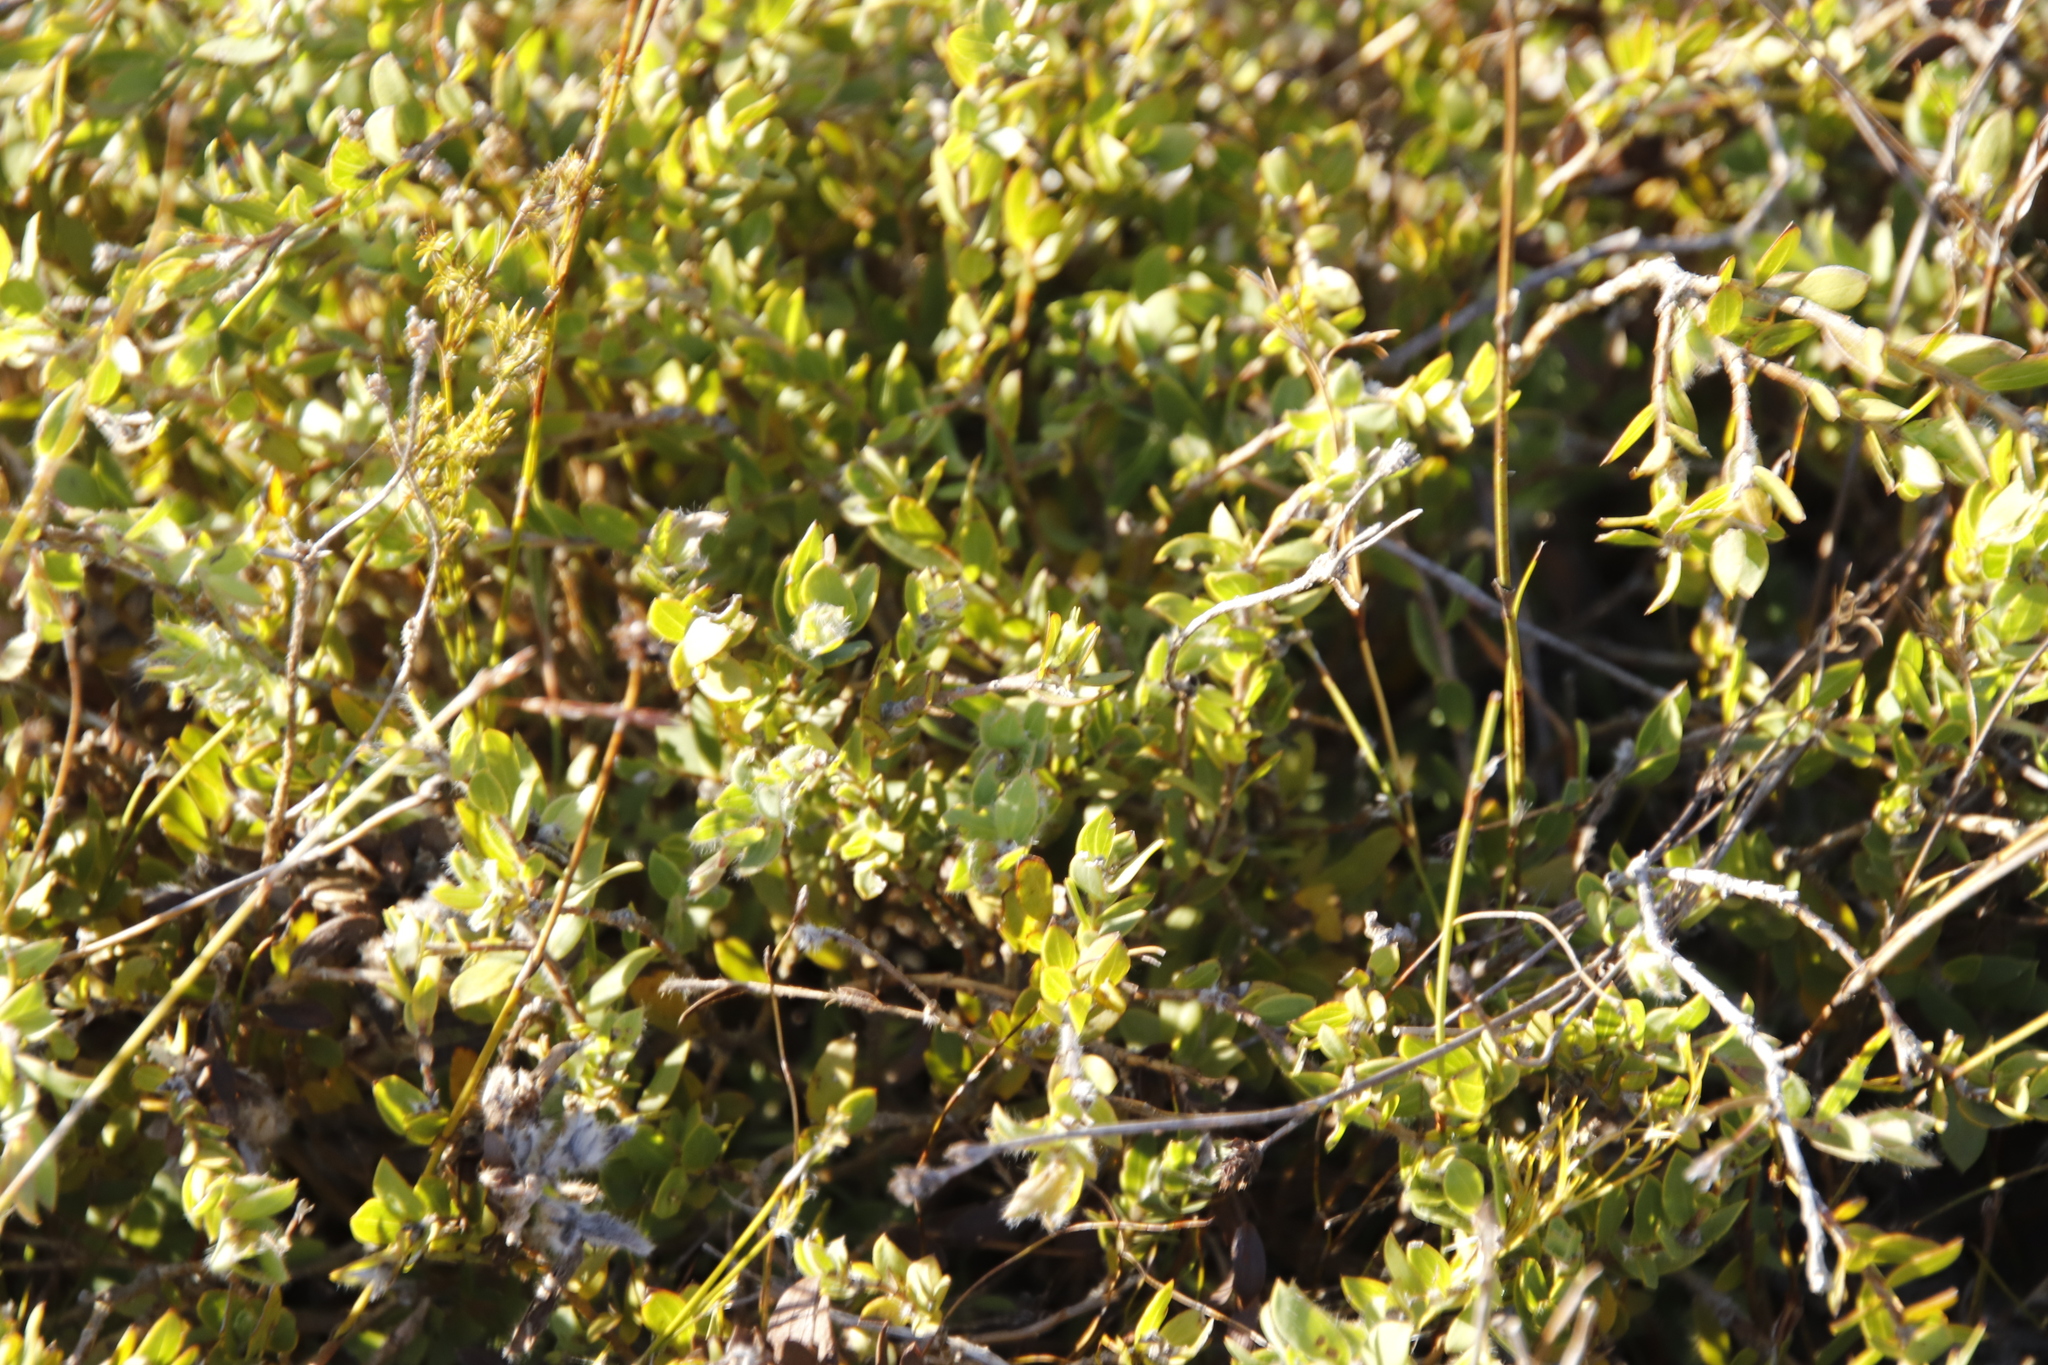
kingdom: Plantae
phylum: Tracheophyta
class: Magnoliopsida
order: Fabales
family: Fabaceae
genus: Liparia
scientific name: Liparia parva
